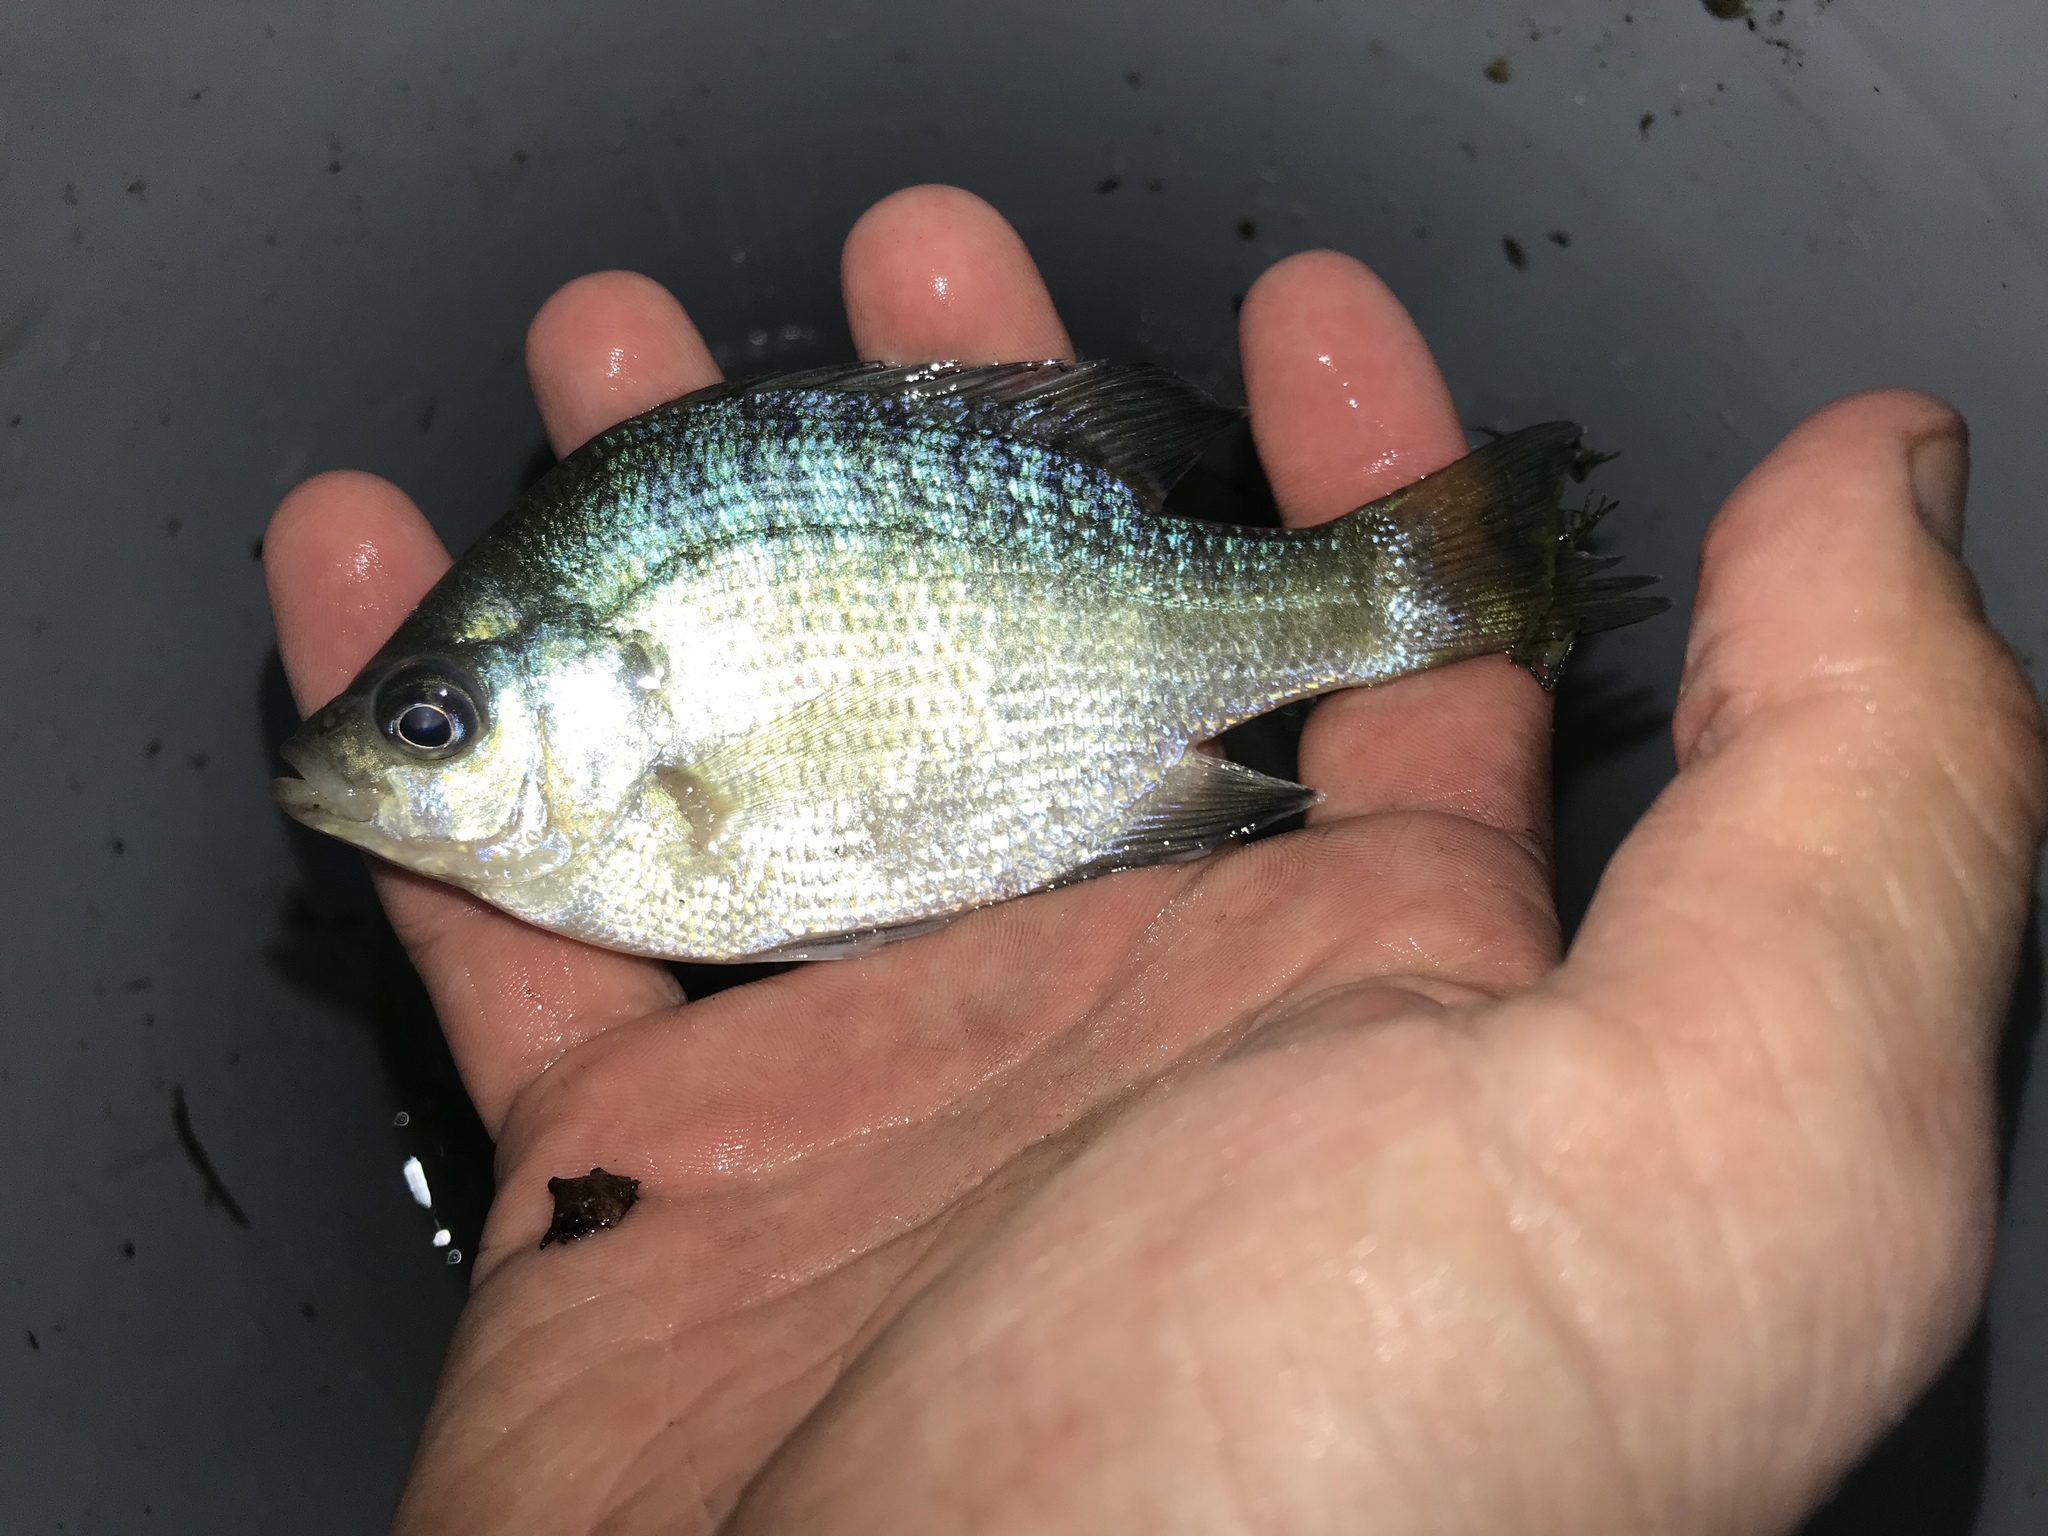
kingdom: Animalia
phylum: Chordata
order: Perciformes
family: Centrarchidae
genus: Lepomis
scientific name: Lepomis macrochirus
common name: Bluegill
